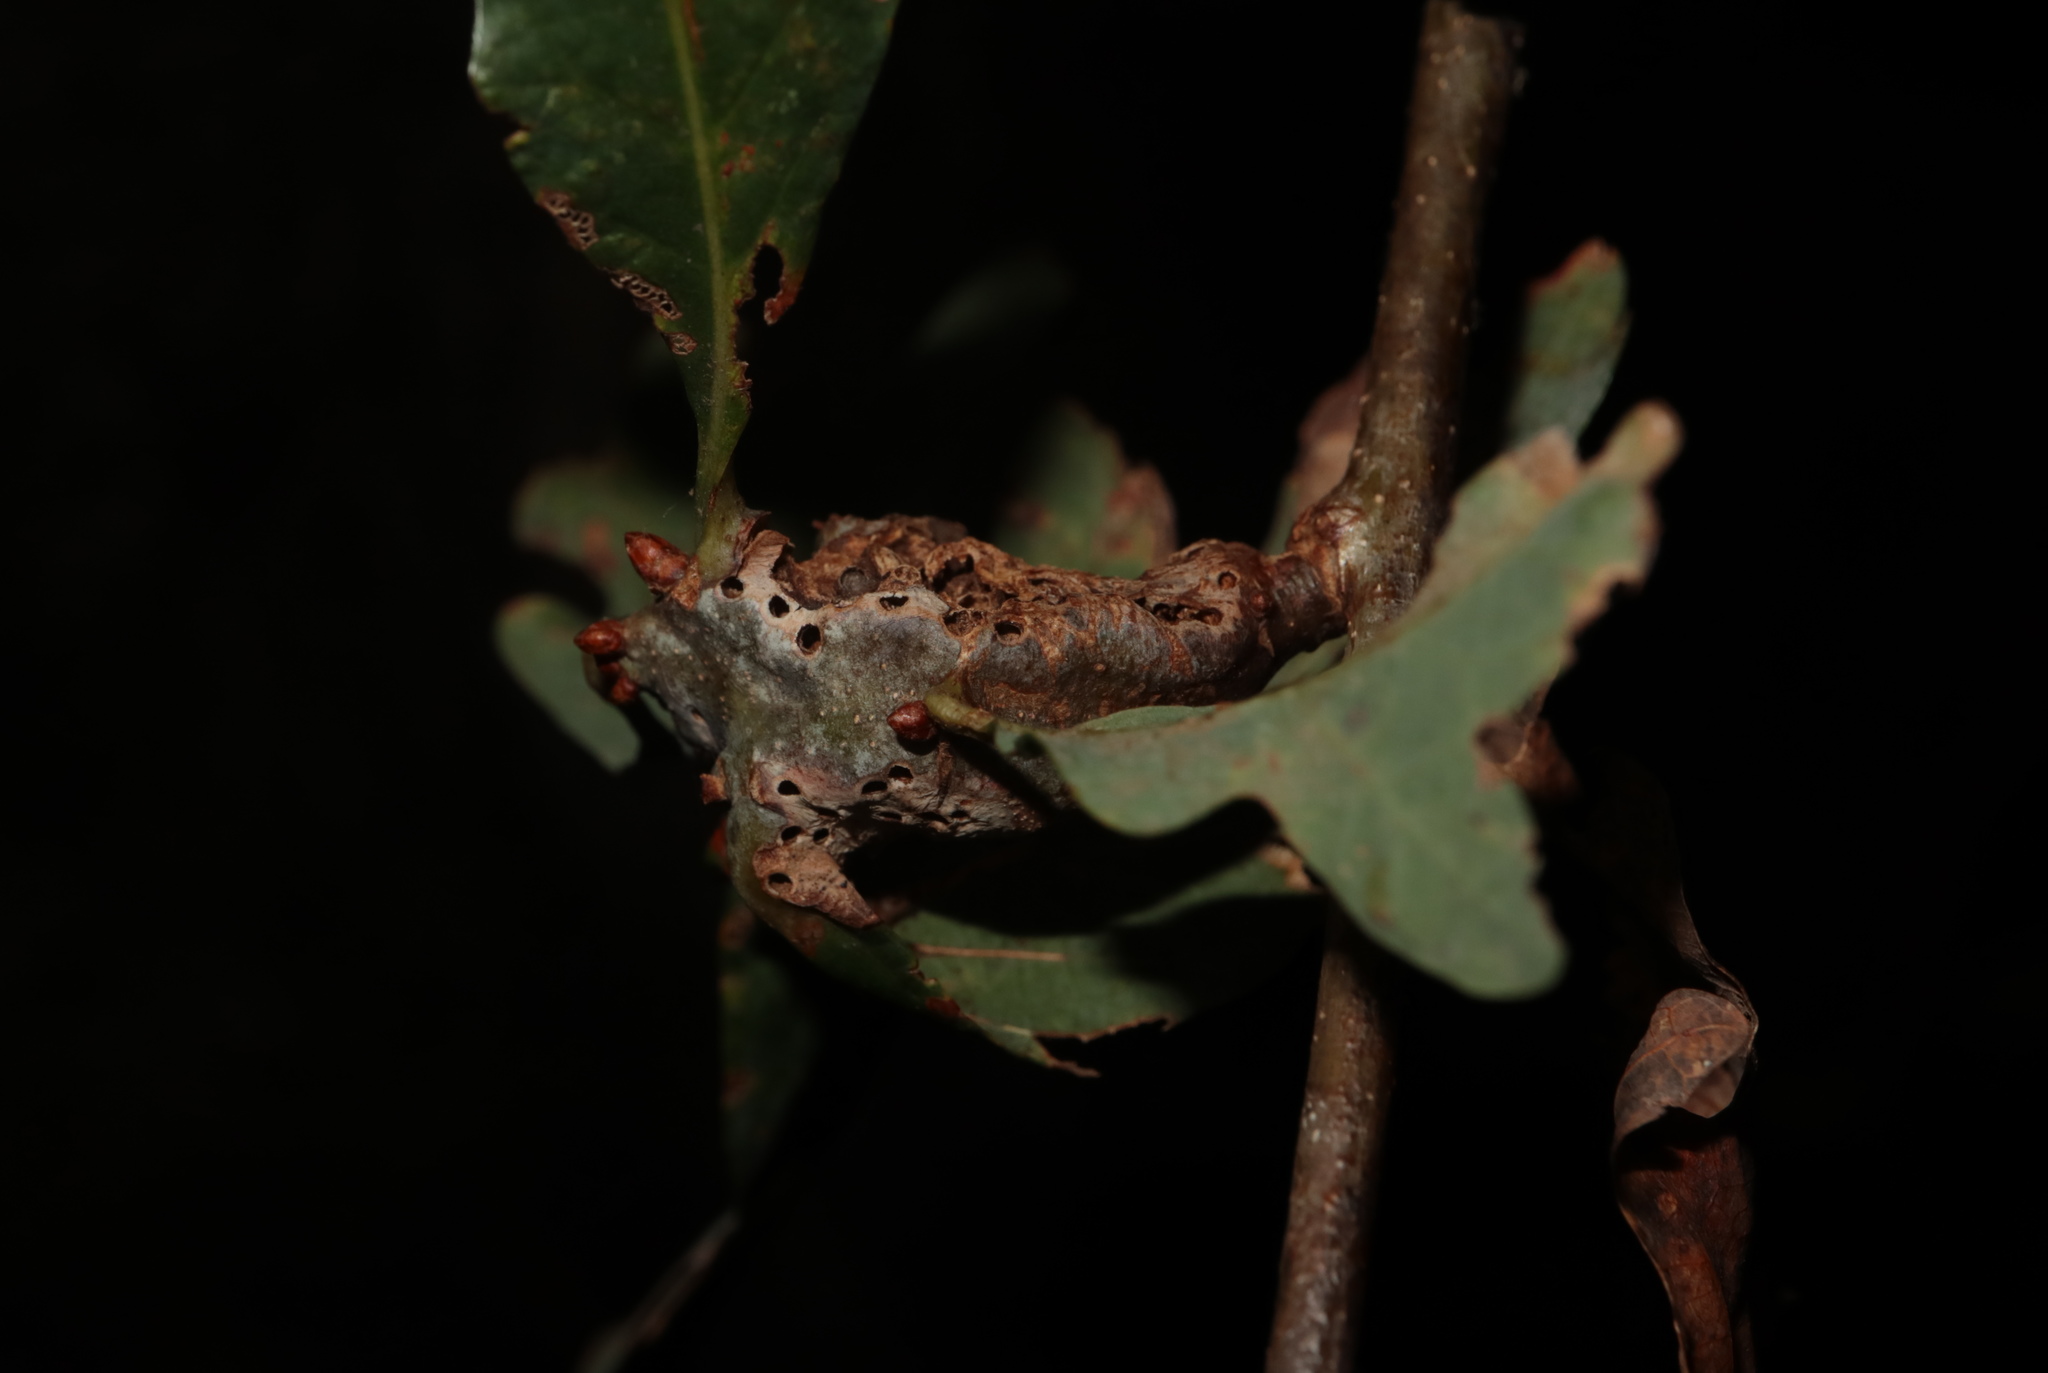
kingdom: Animalia
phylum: Arthropoda
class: Insecta
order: Hymenoptera
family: Cynipidae
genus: Neuroterus
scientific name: Neuroterus quercusbaccarum
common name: Common spangle gall
